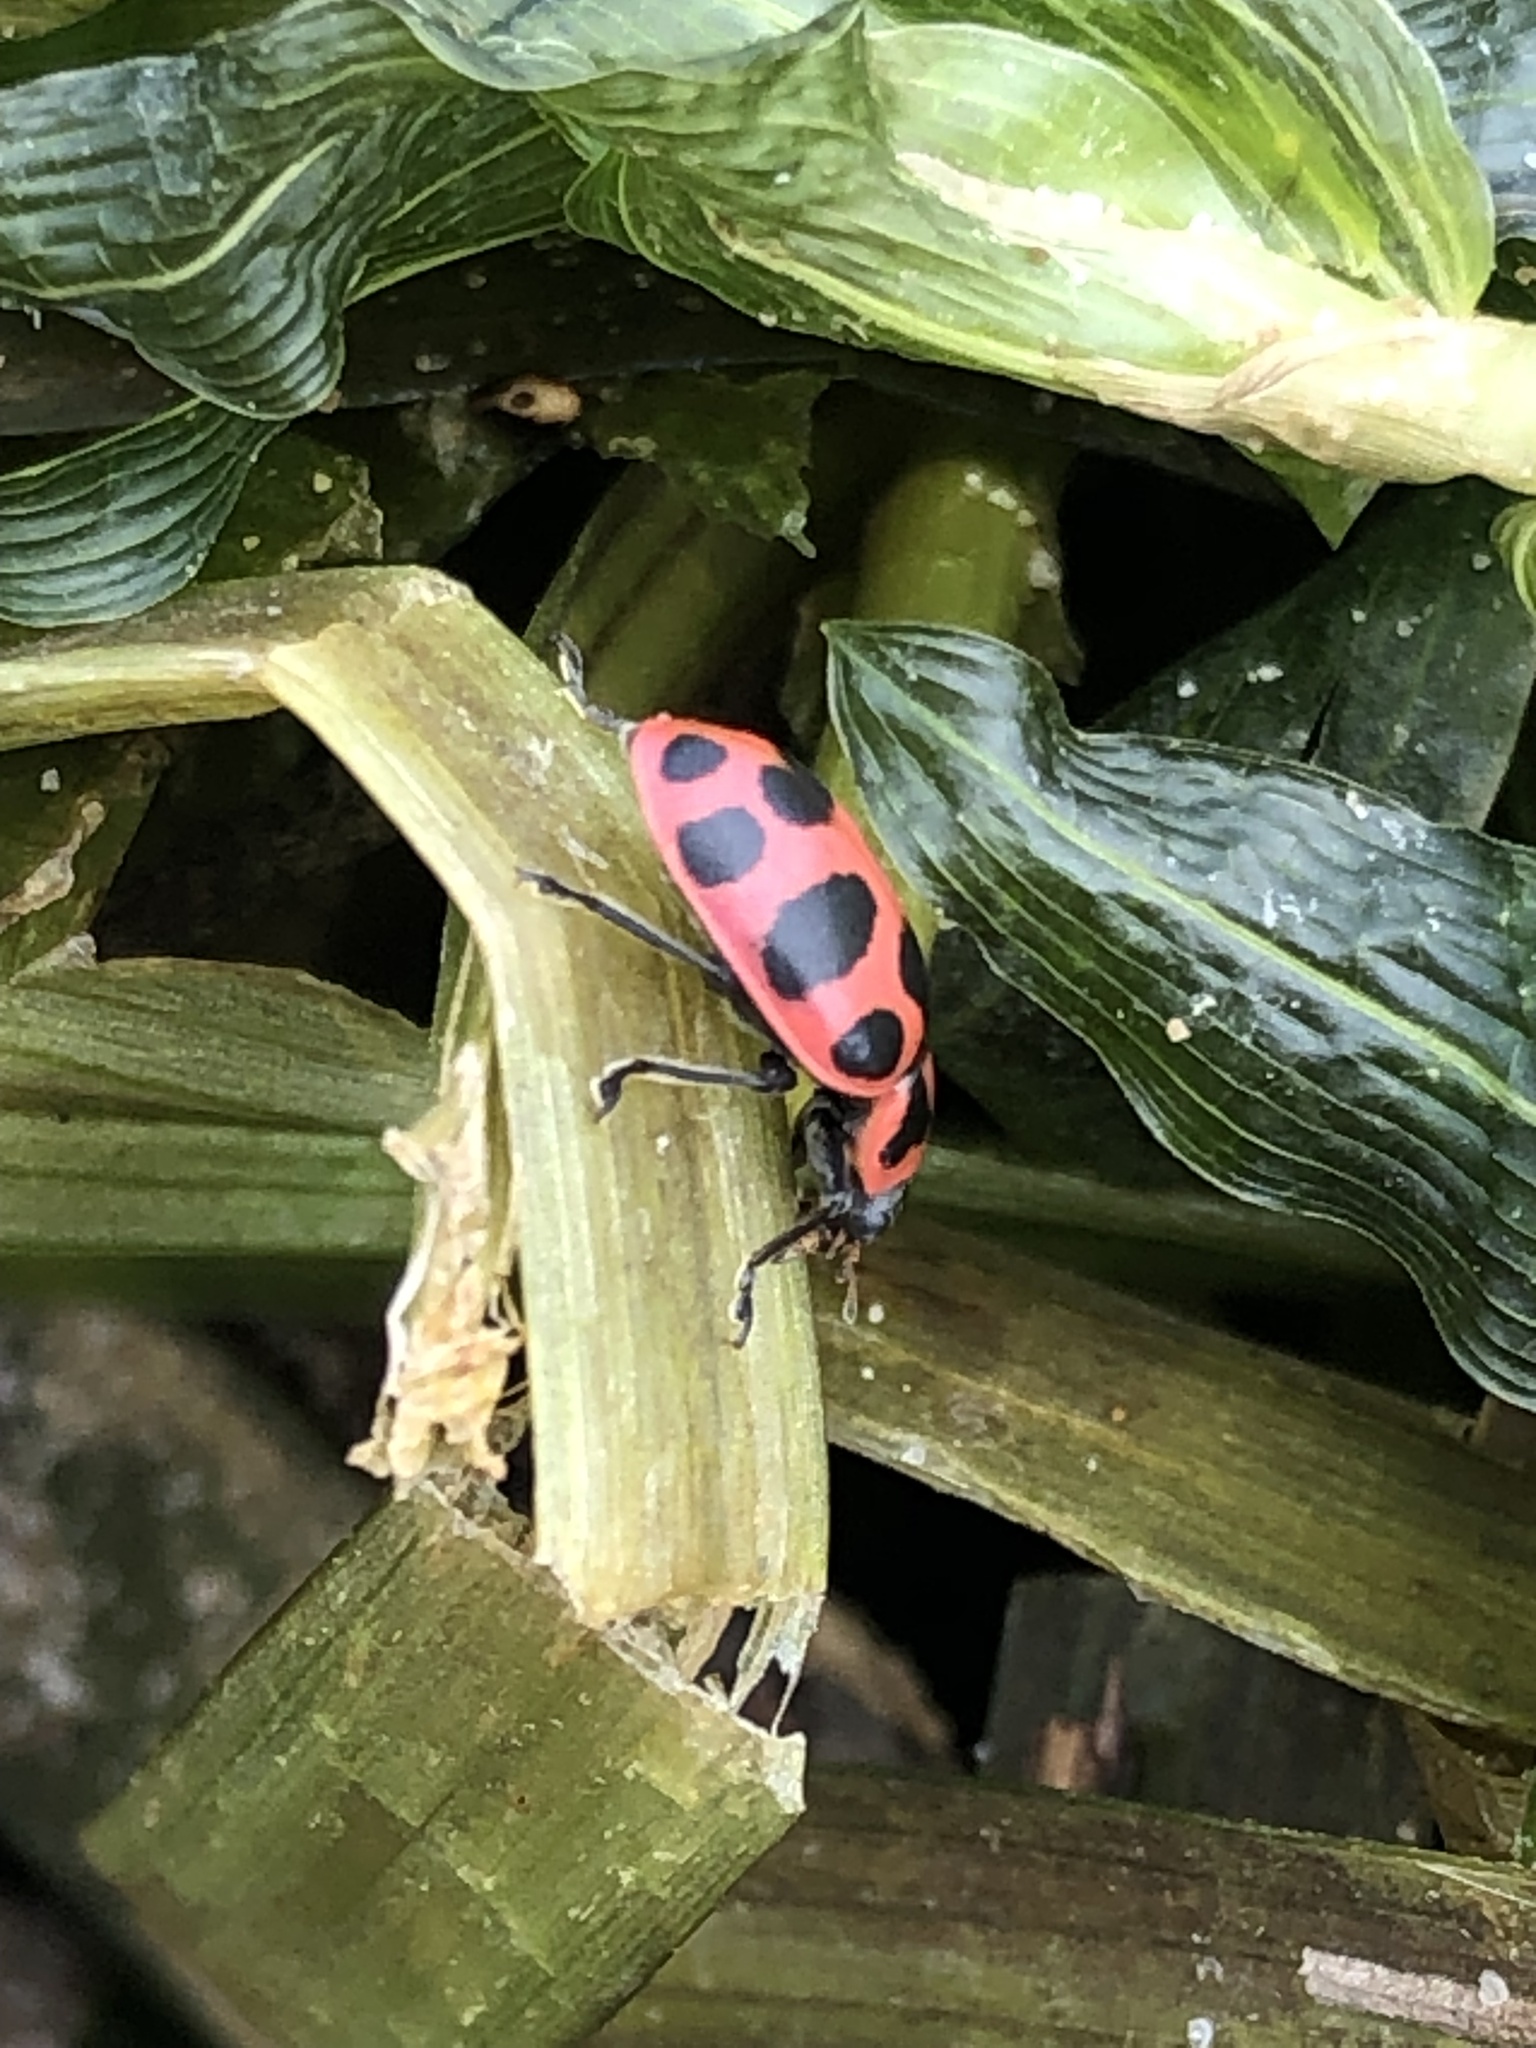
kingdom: Animalia
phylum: Arthropoda
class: Insecta
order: Coleoptera
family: Coccinellidae
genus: Coleomegilla
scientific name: Coleomegilla maculata
